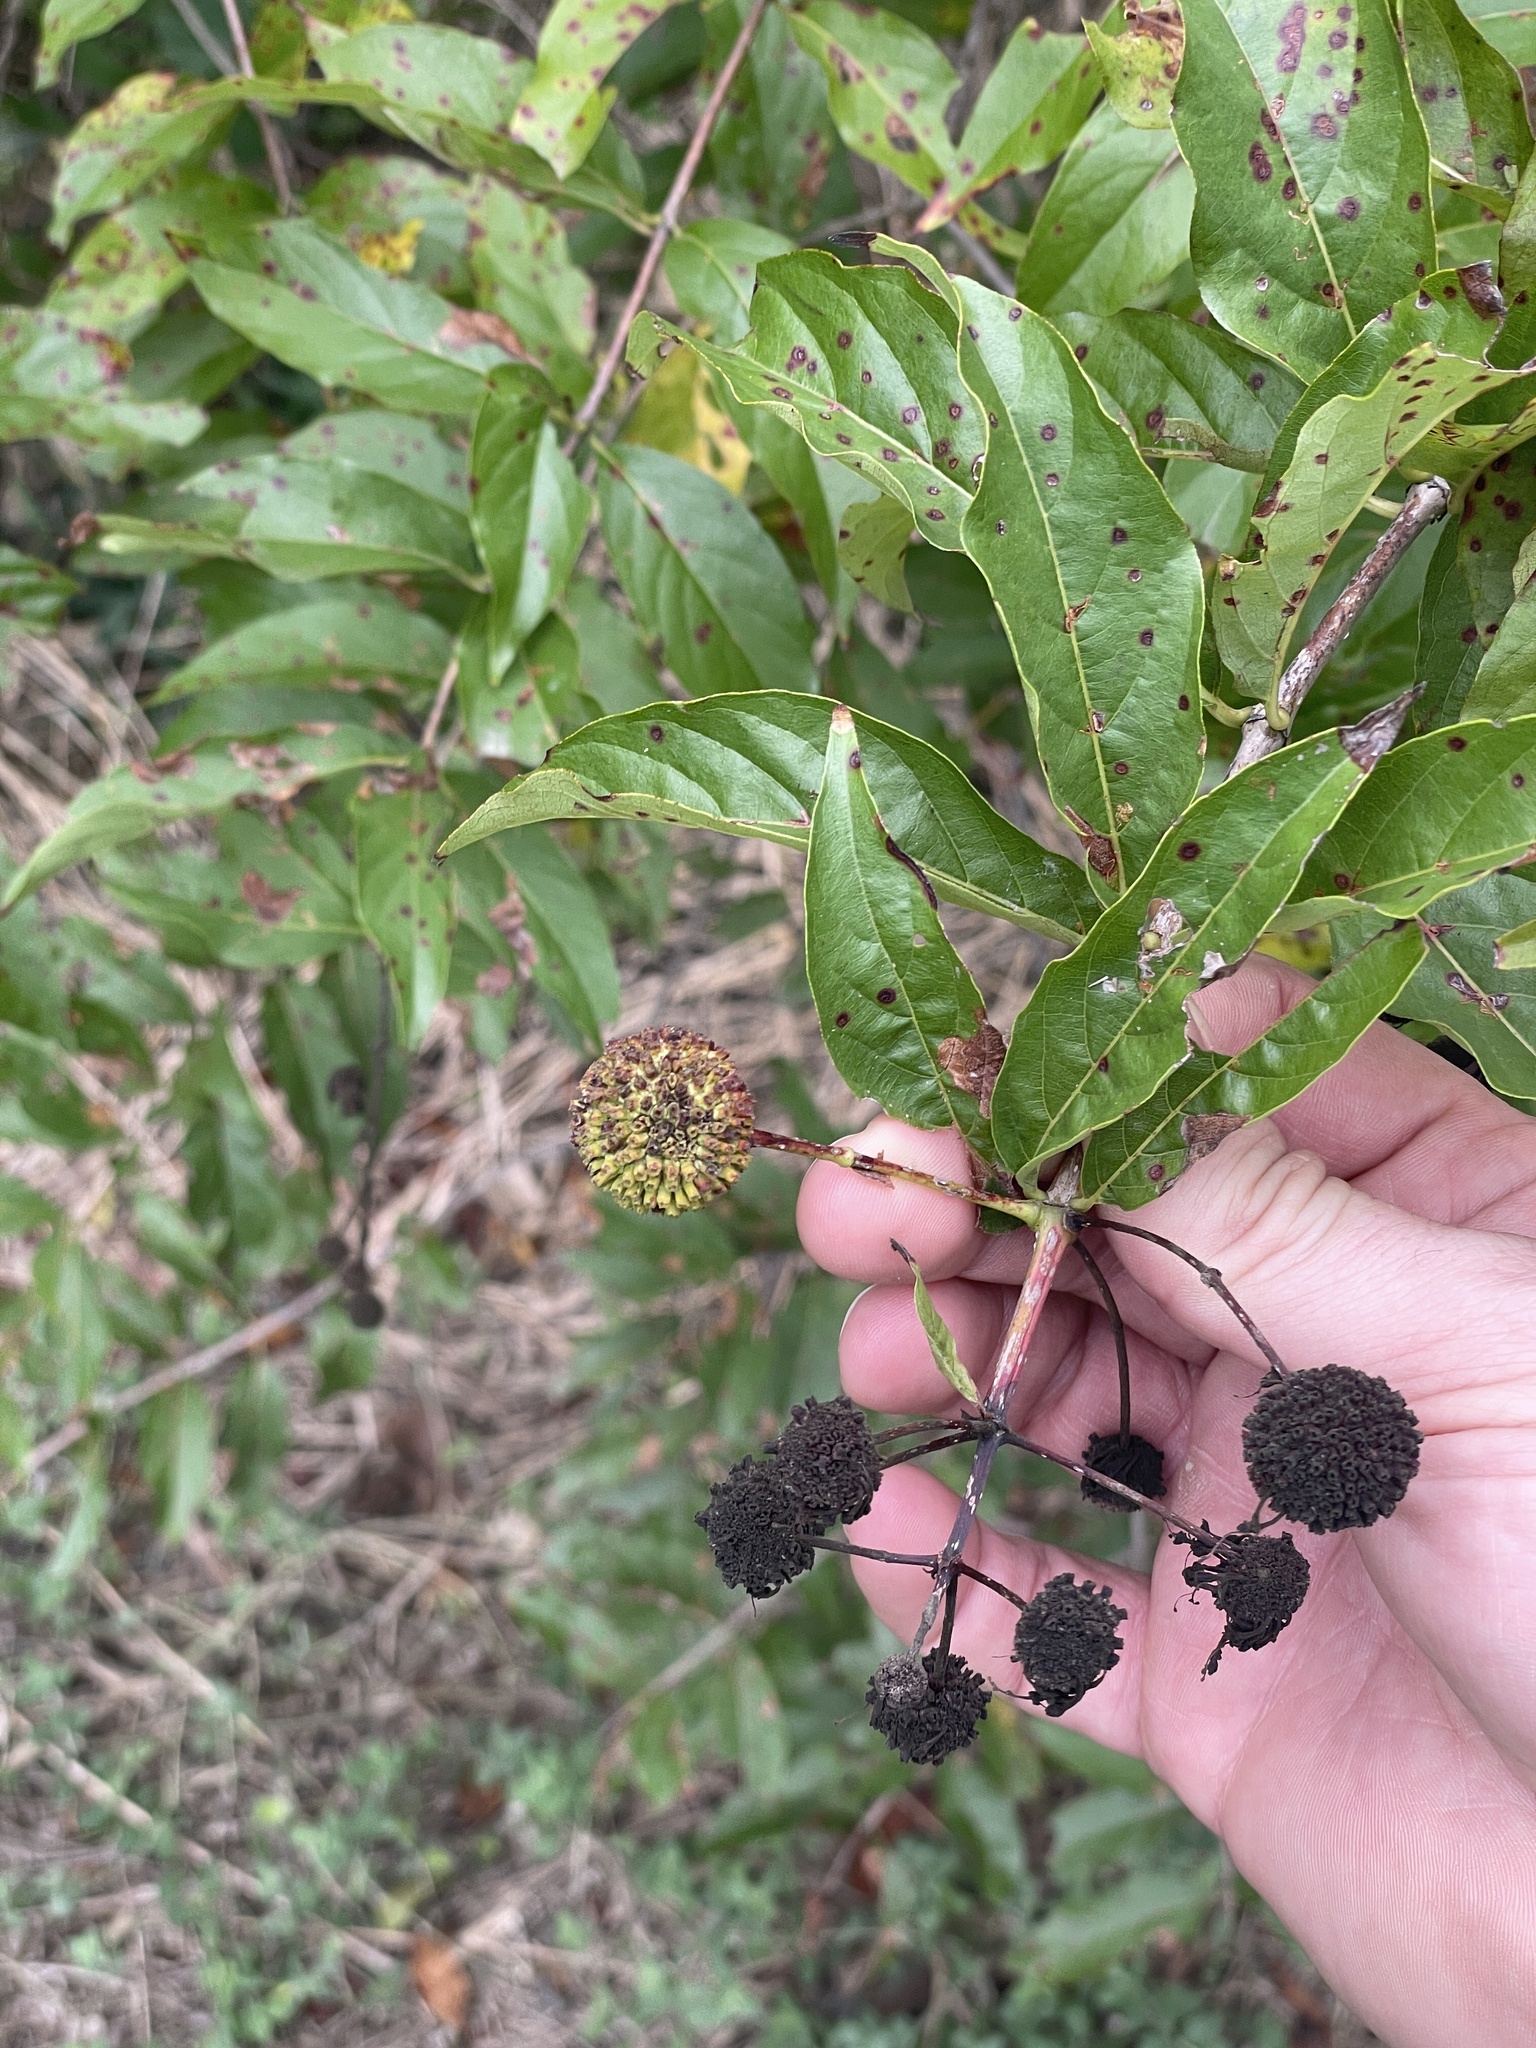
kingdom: Plantae
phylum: Tracheophyta
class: Magnoliopsida
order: Gentianales
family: Rubiaceae
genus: Cephalanthus
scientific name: Cephalanthus occidentalis
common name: Button-willow
